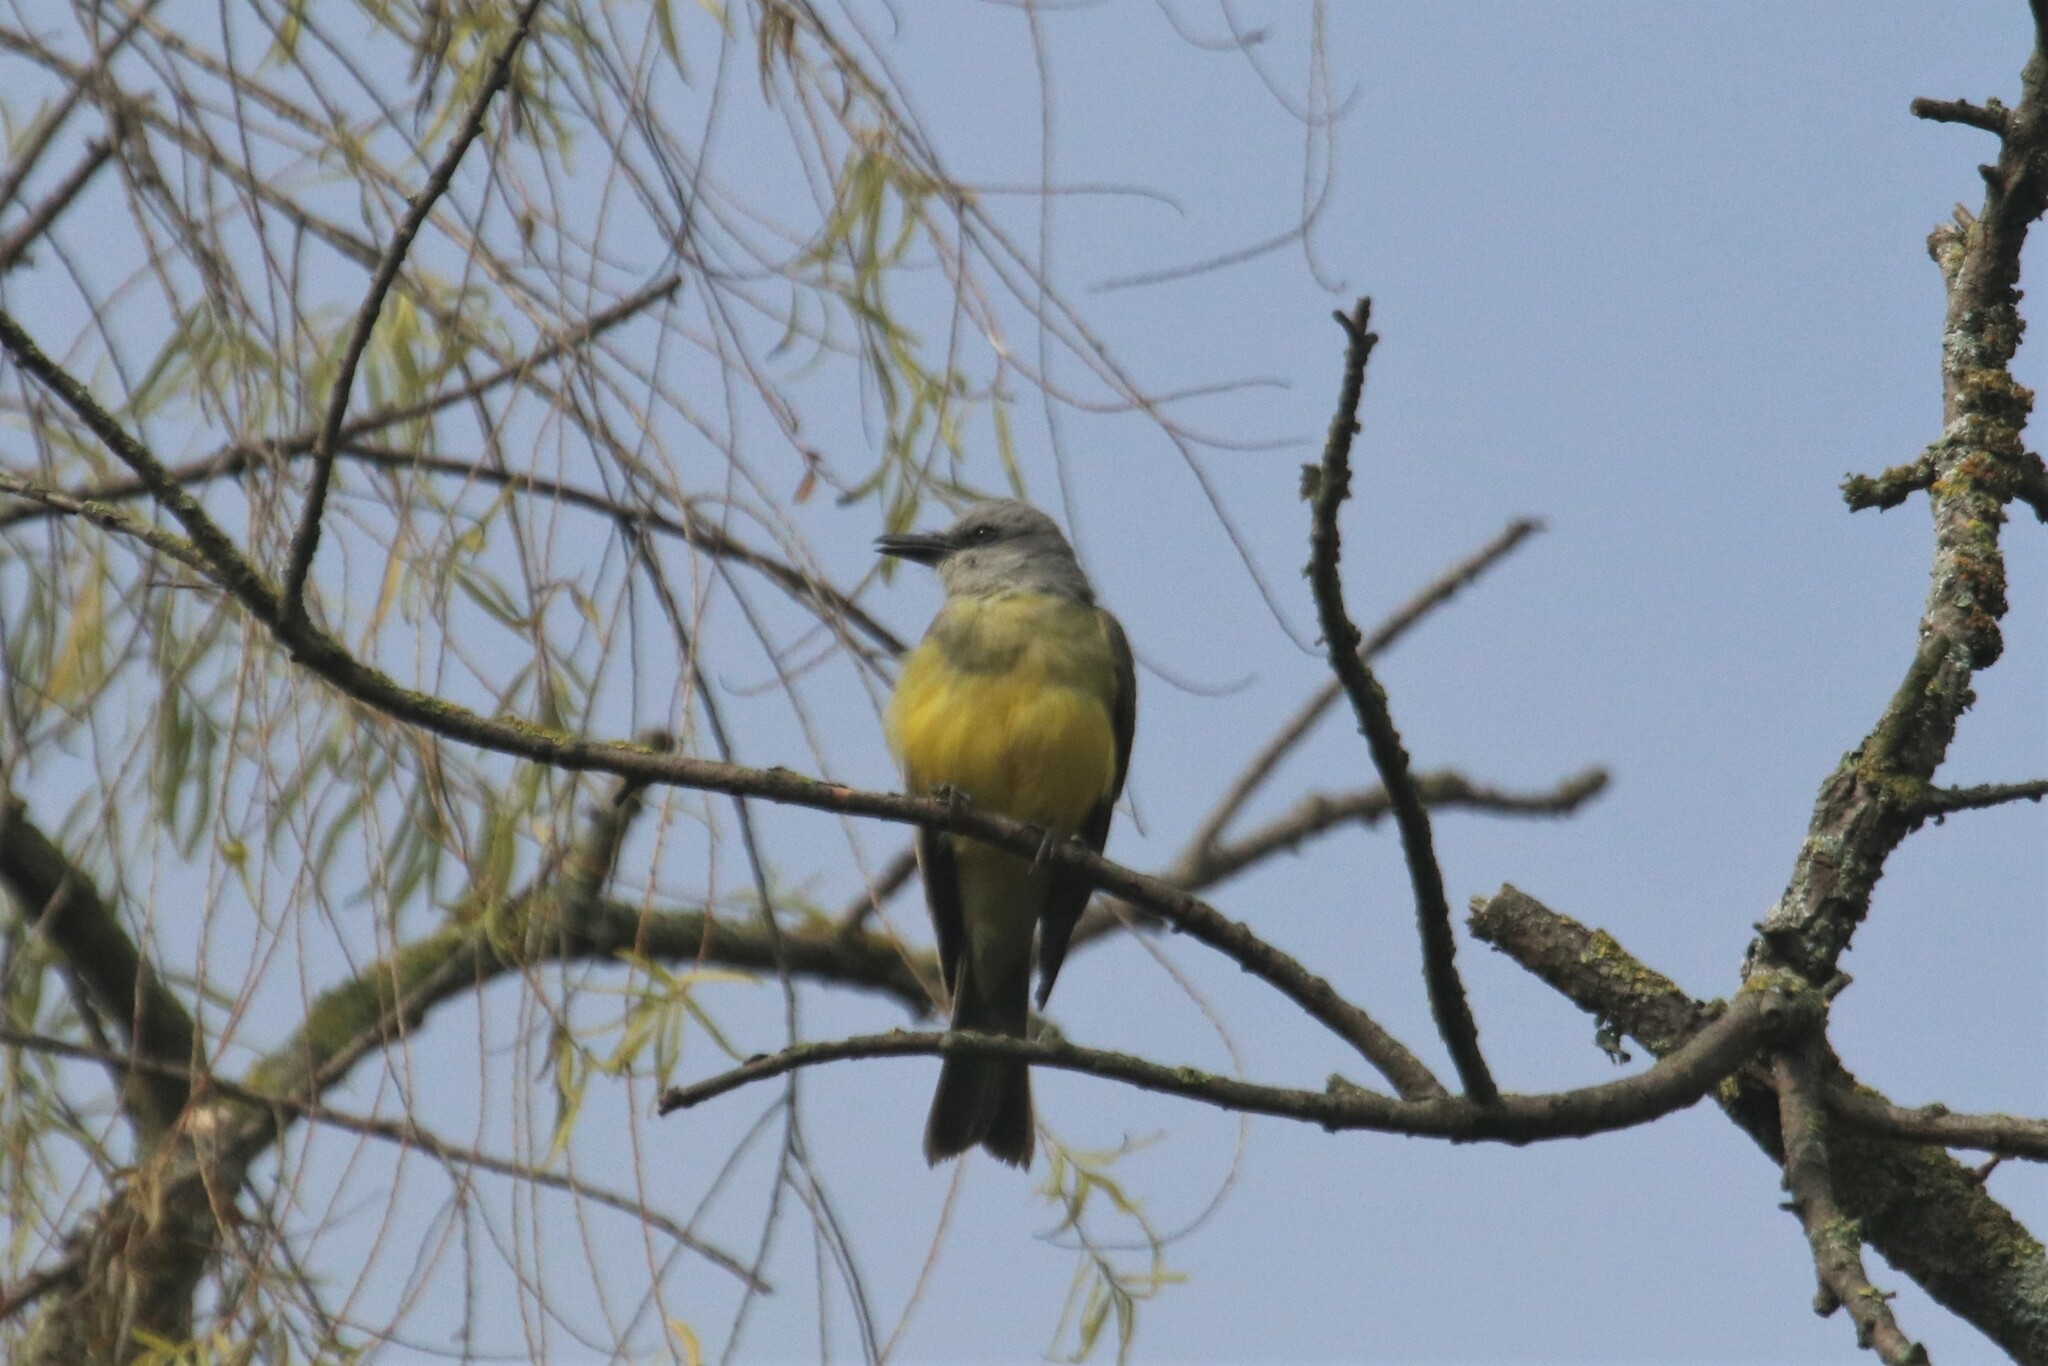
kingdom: Animalia
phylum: Chordata
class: Aves
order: Passeriformes
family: Tyrannidae
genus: Tyrannus
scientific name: Tyrannus melancholicus
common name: Tropical kingbird
